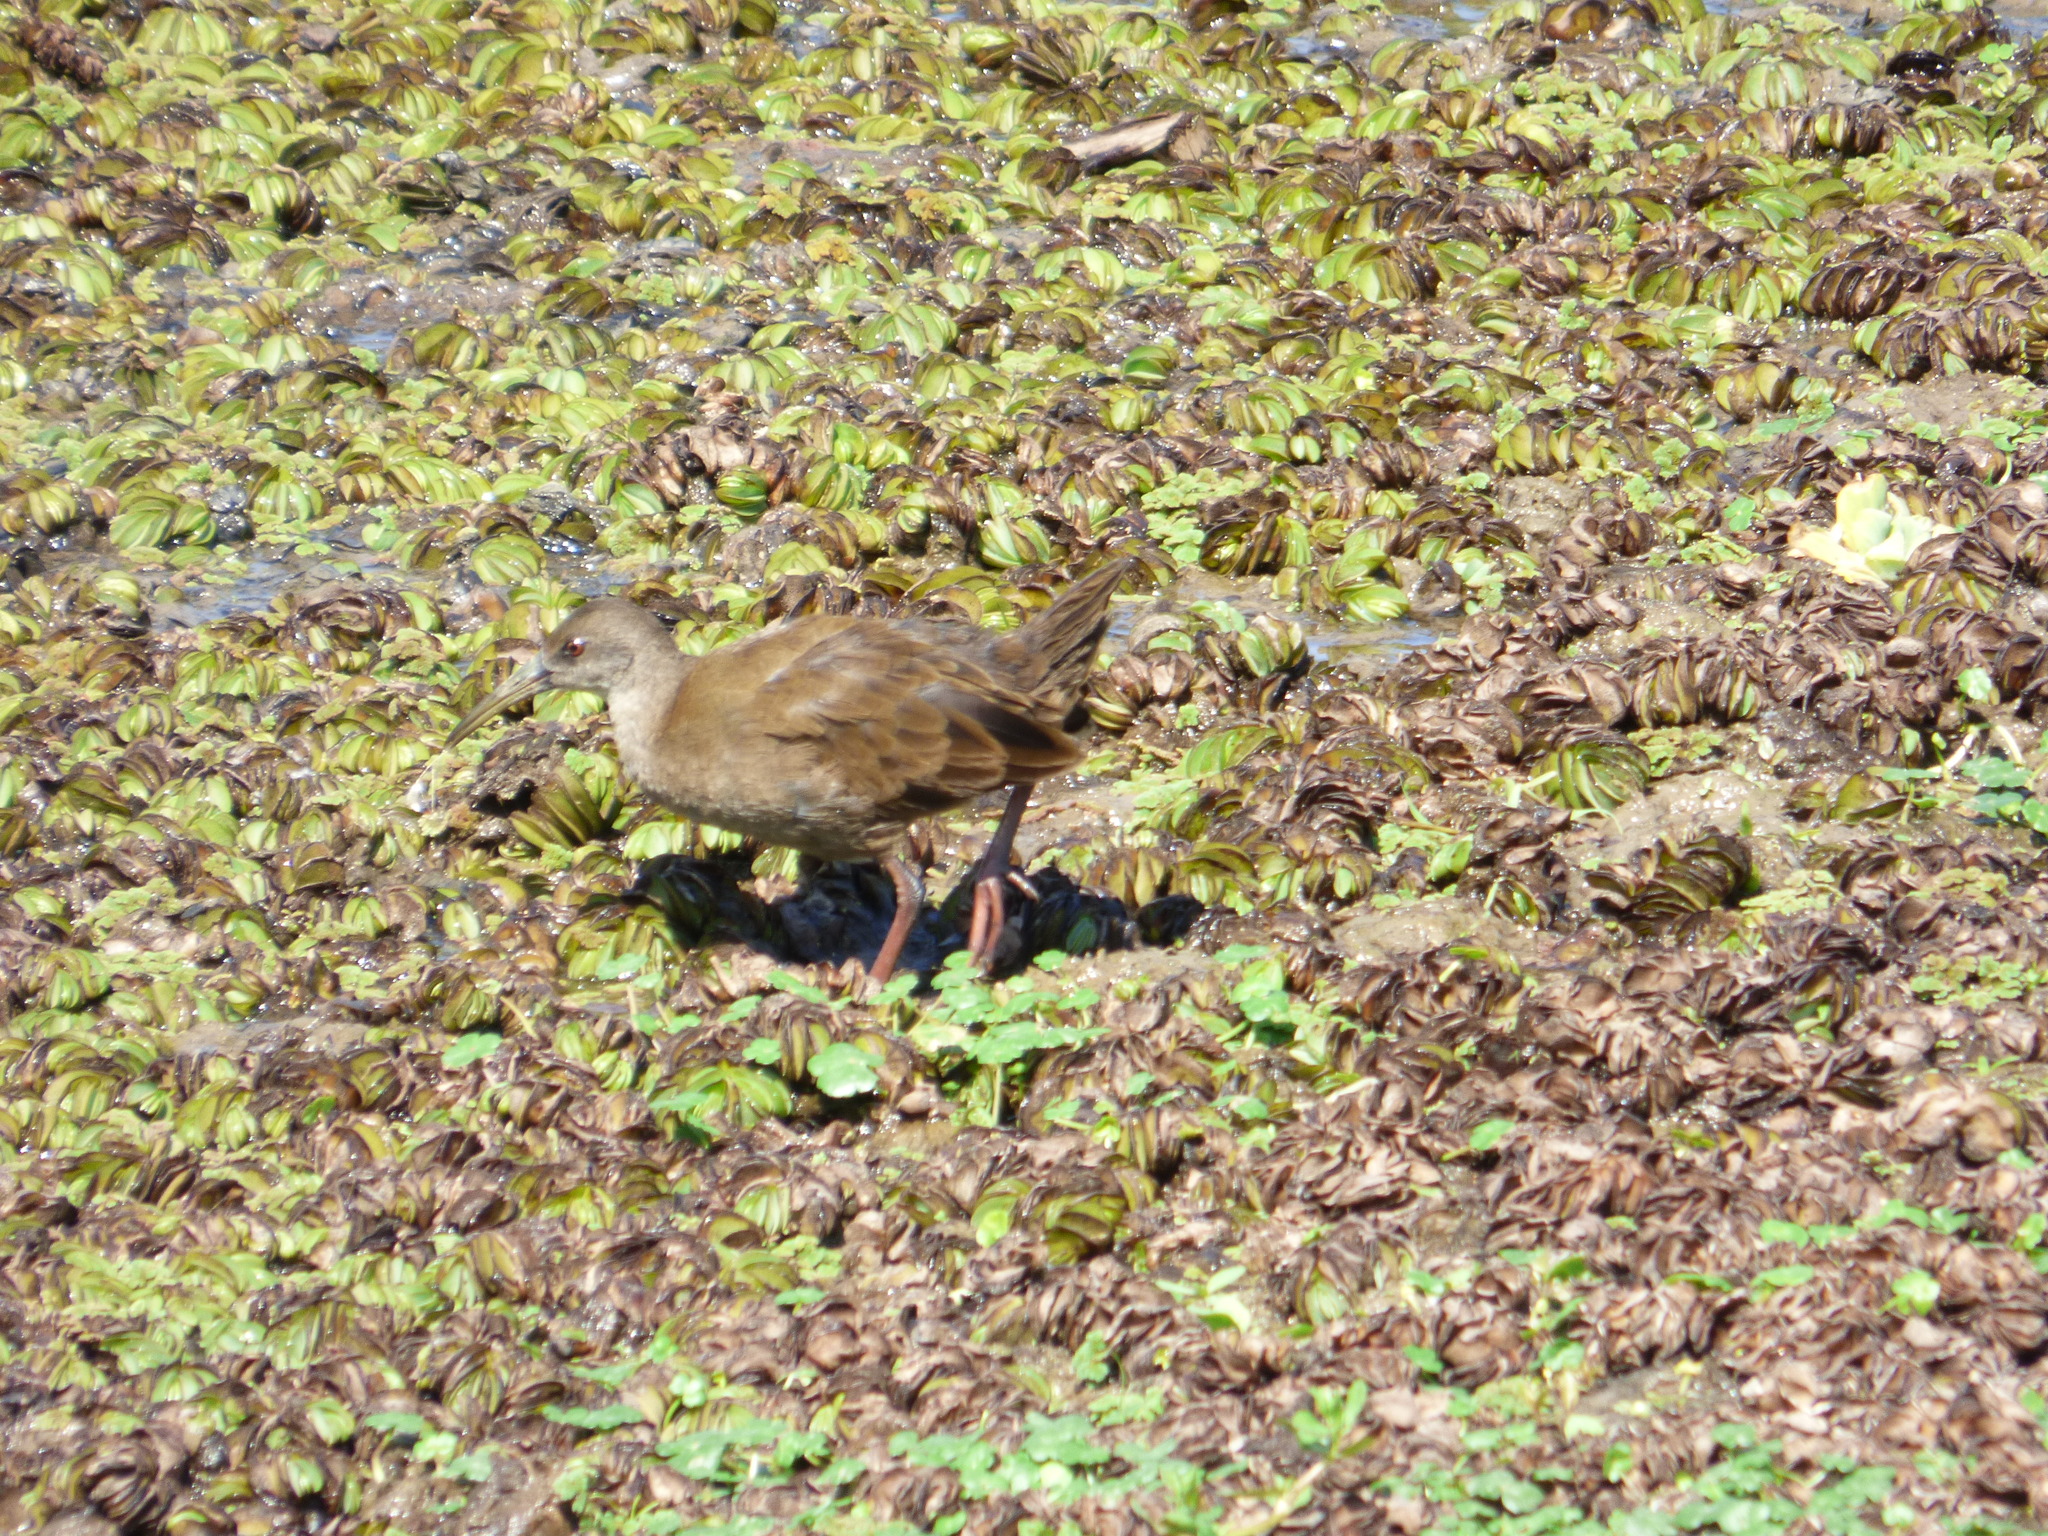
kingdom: Animalia
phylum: Chordata
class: Aves
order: Gruiformes
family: Rallidae
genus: Pardirallus
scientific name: Pardirallus sanguinolentus
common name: Plumbeous rail
